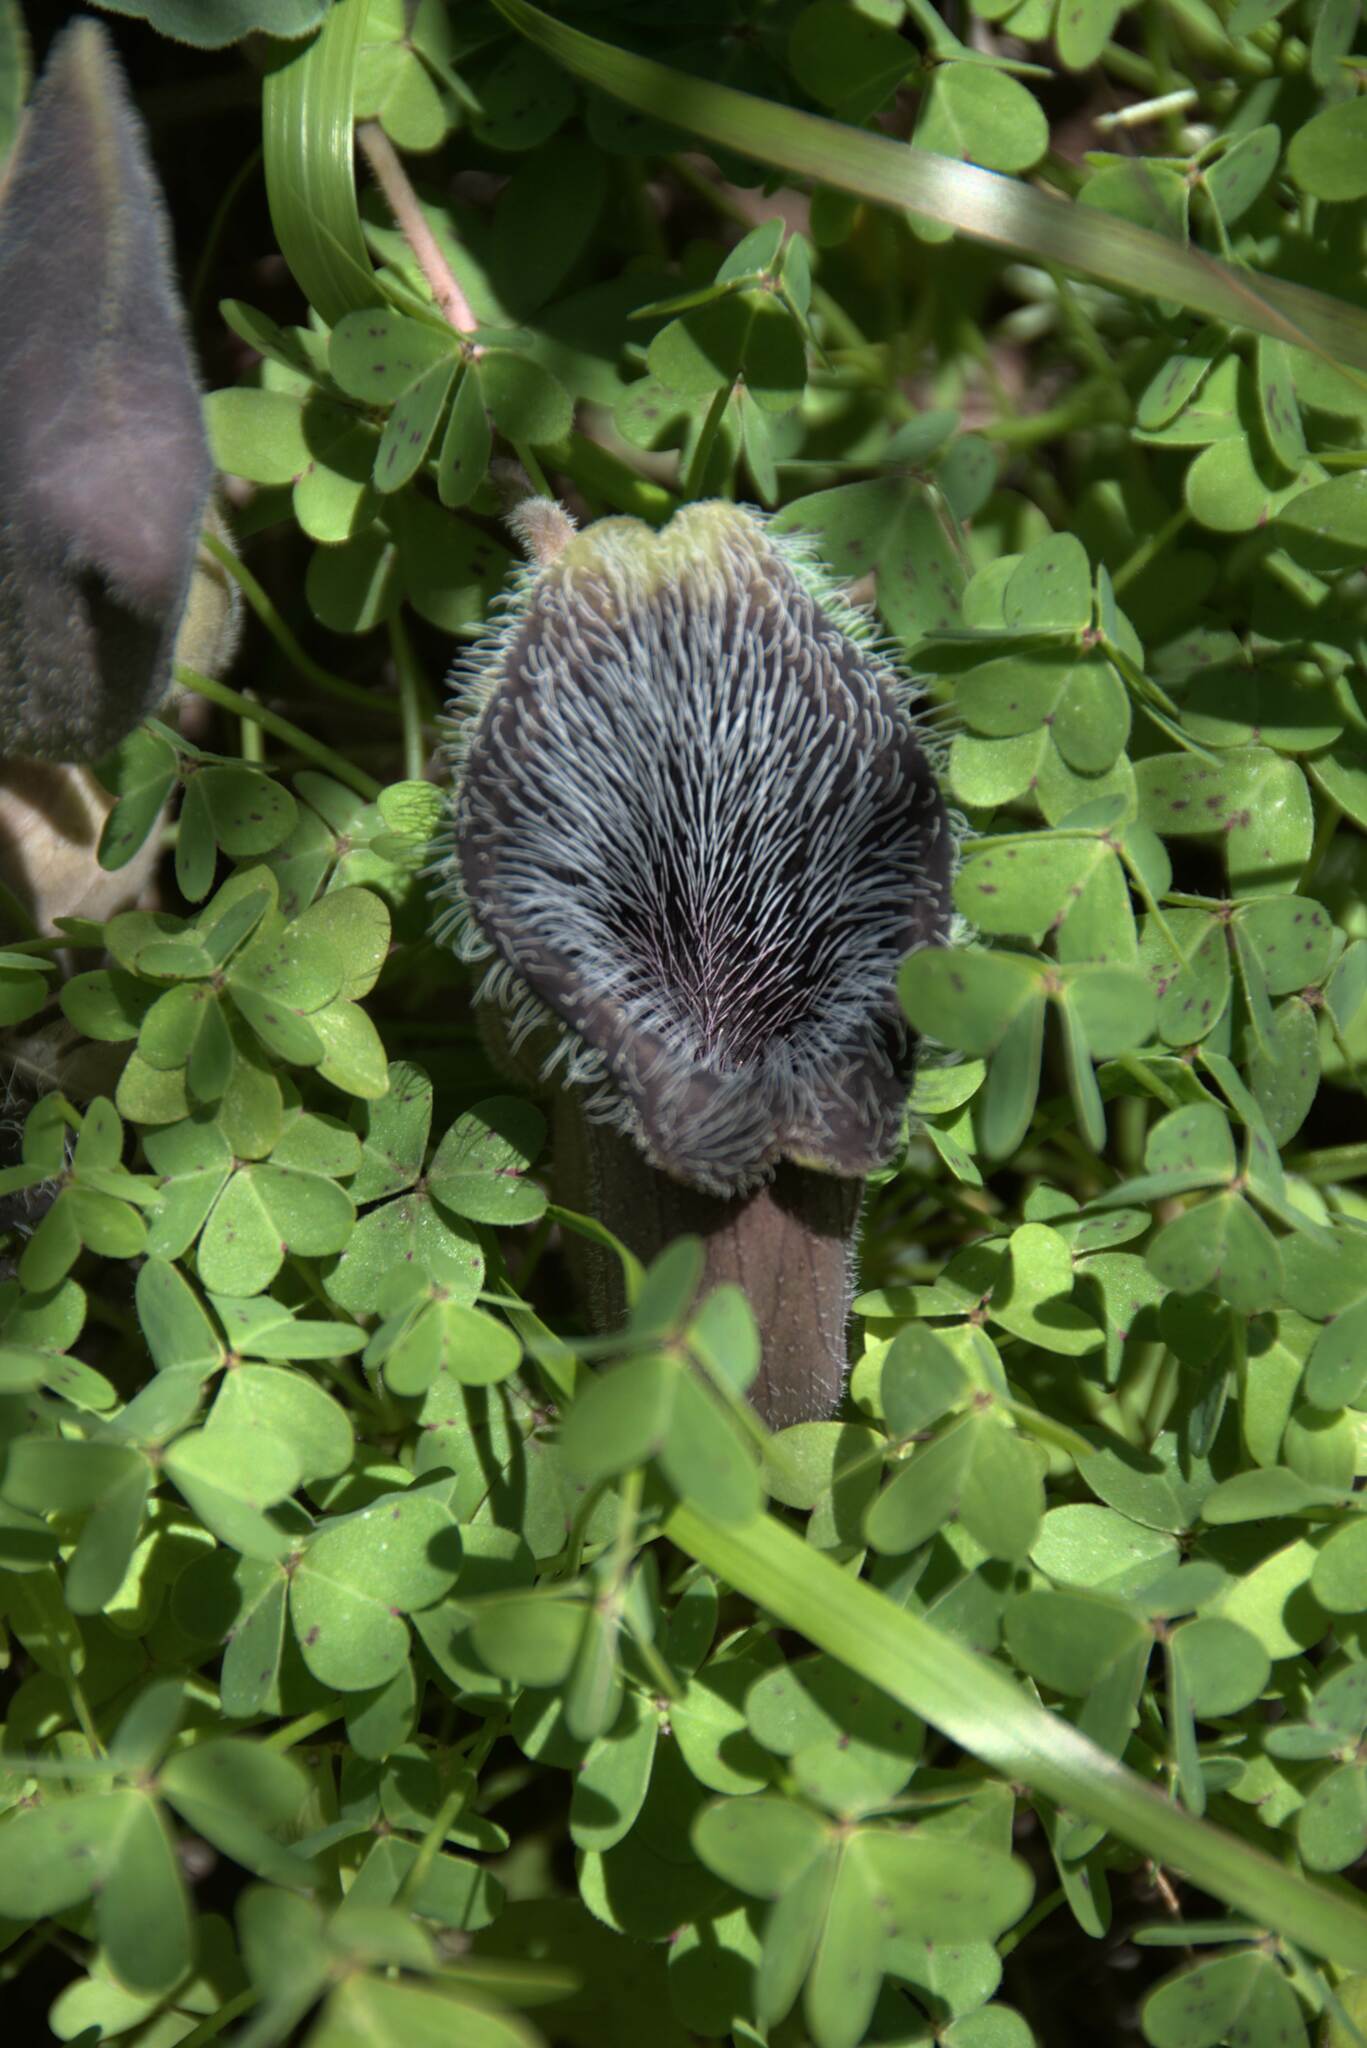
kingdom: Plantae
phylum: Tracheophyta
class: Magnoliopsida
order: Piperales
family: Aristolochiaceae
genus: Aristolochia
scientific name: Aristolochia cretica
